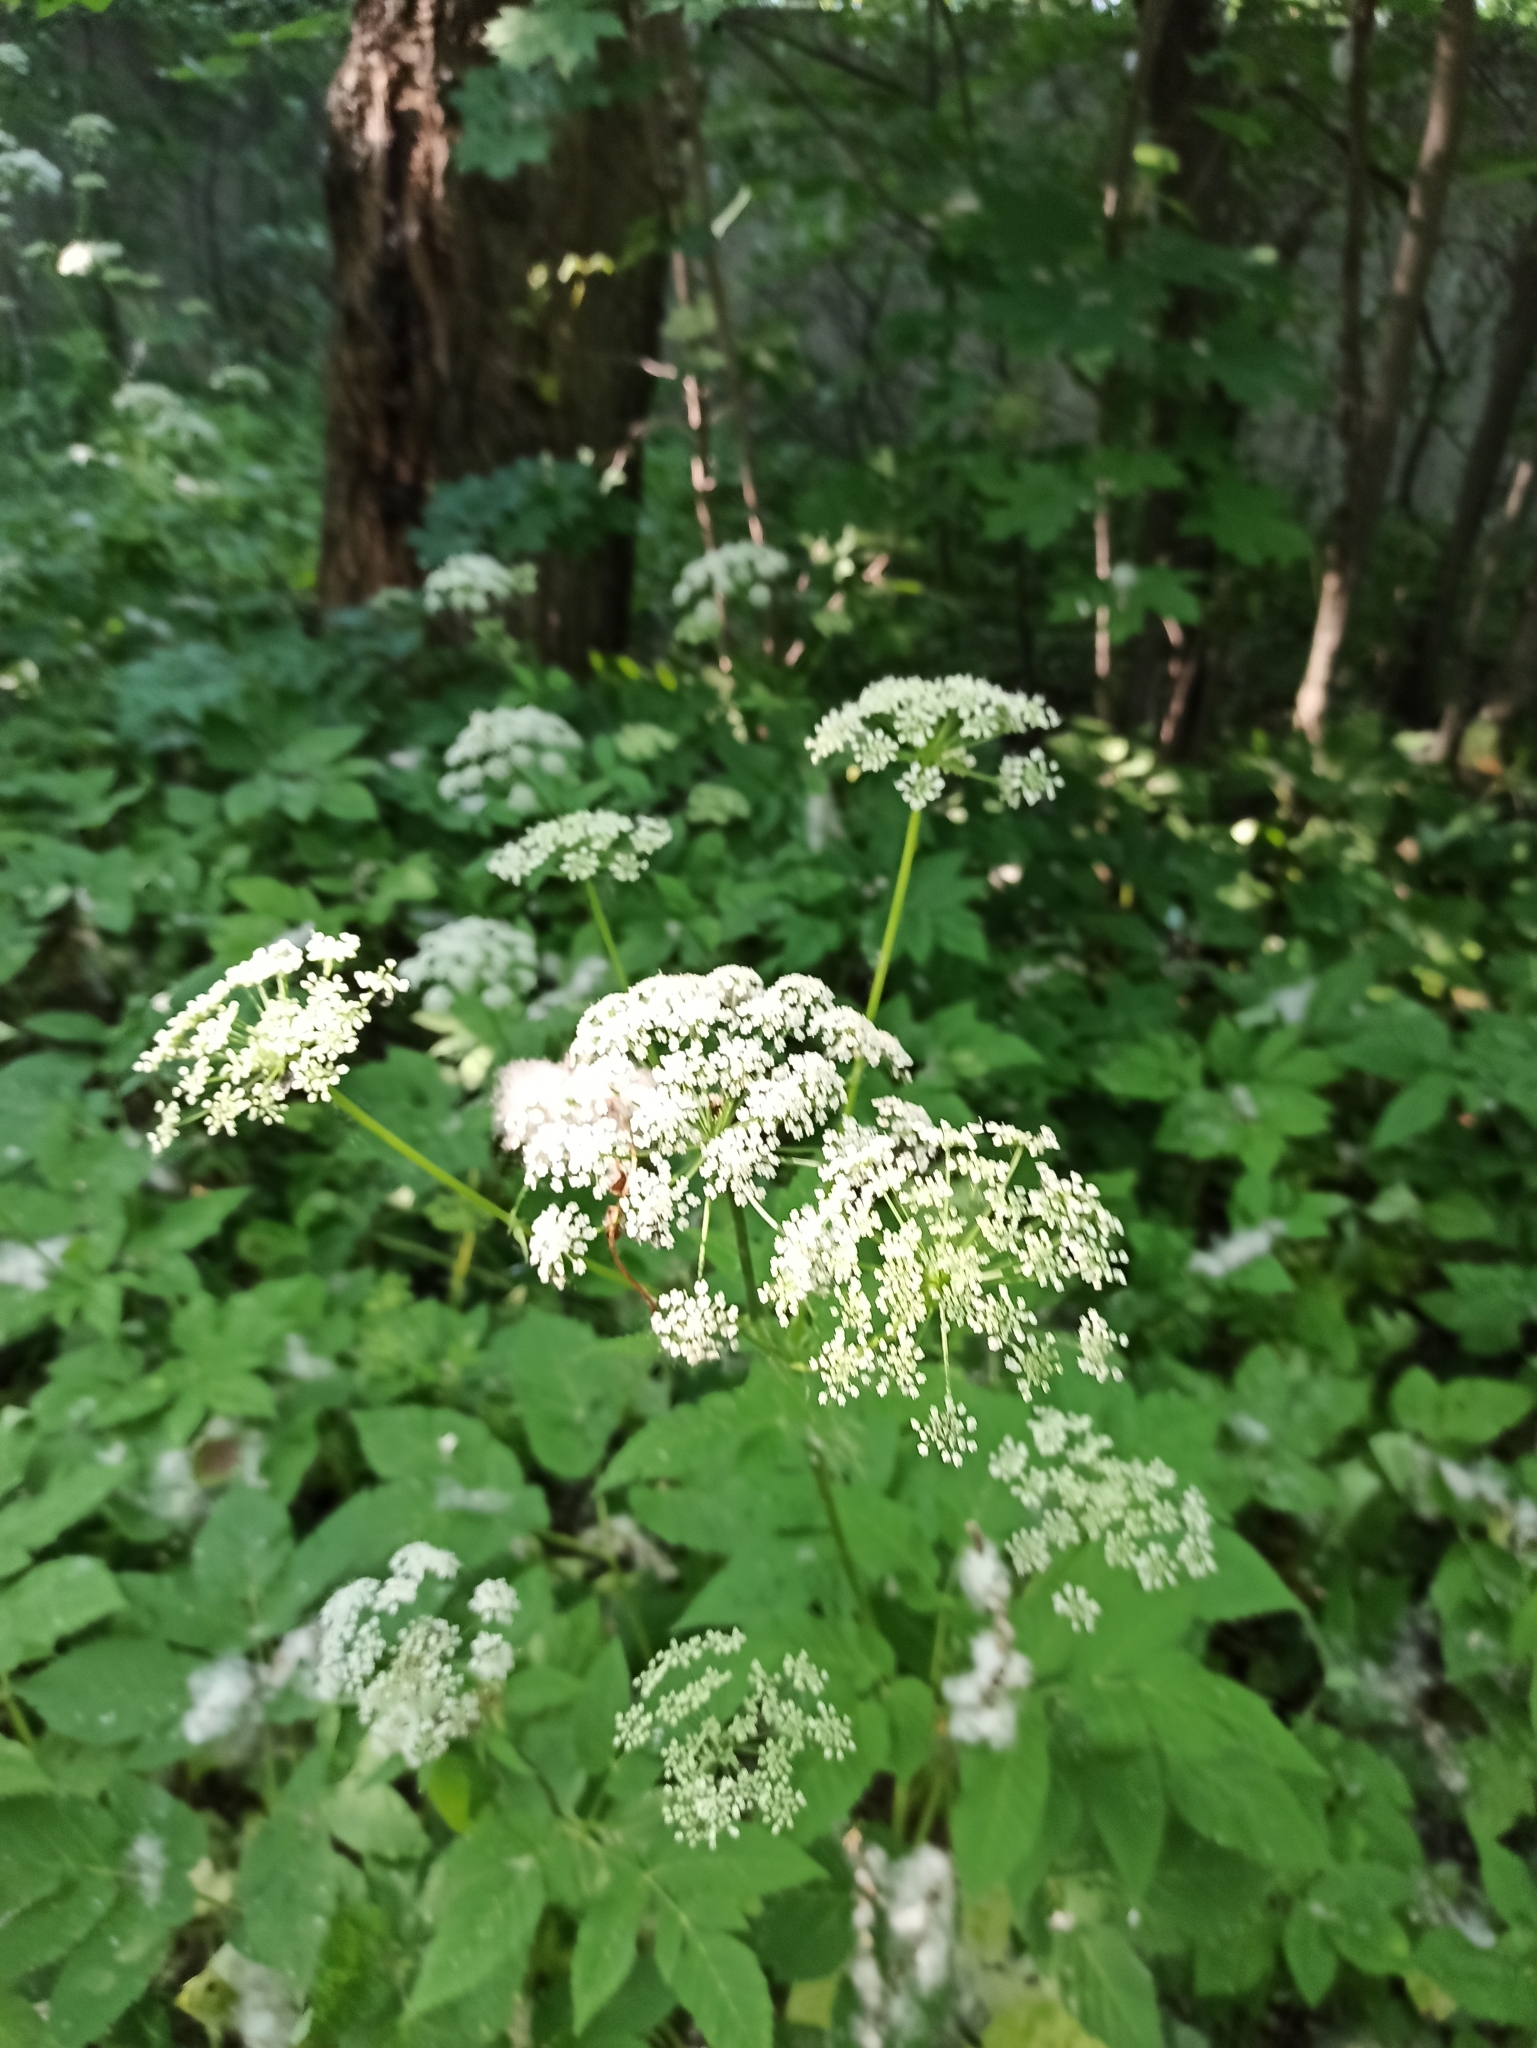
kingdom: Plantae
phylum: Tracheophyta
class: Magnoliopsida
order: Apiales
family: Apiaceae
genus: Aegopodium
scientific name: Aegopodium podagraria
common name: Ground-elder
